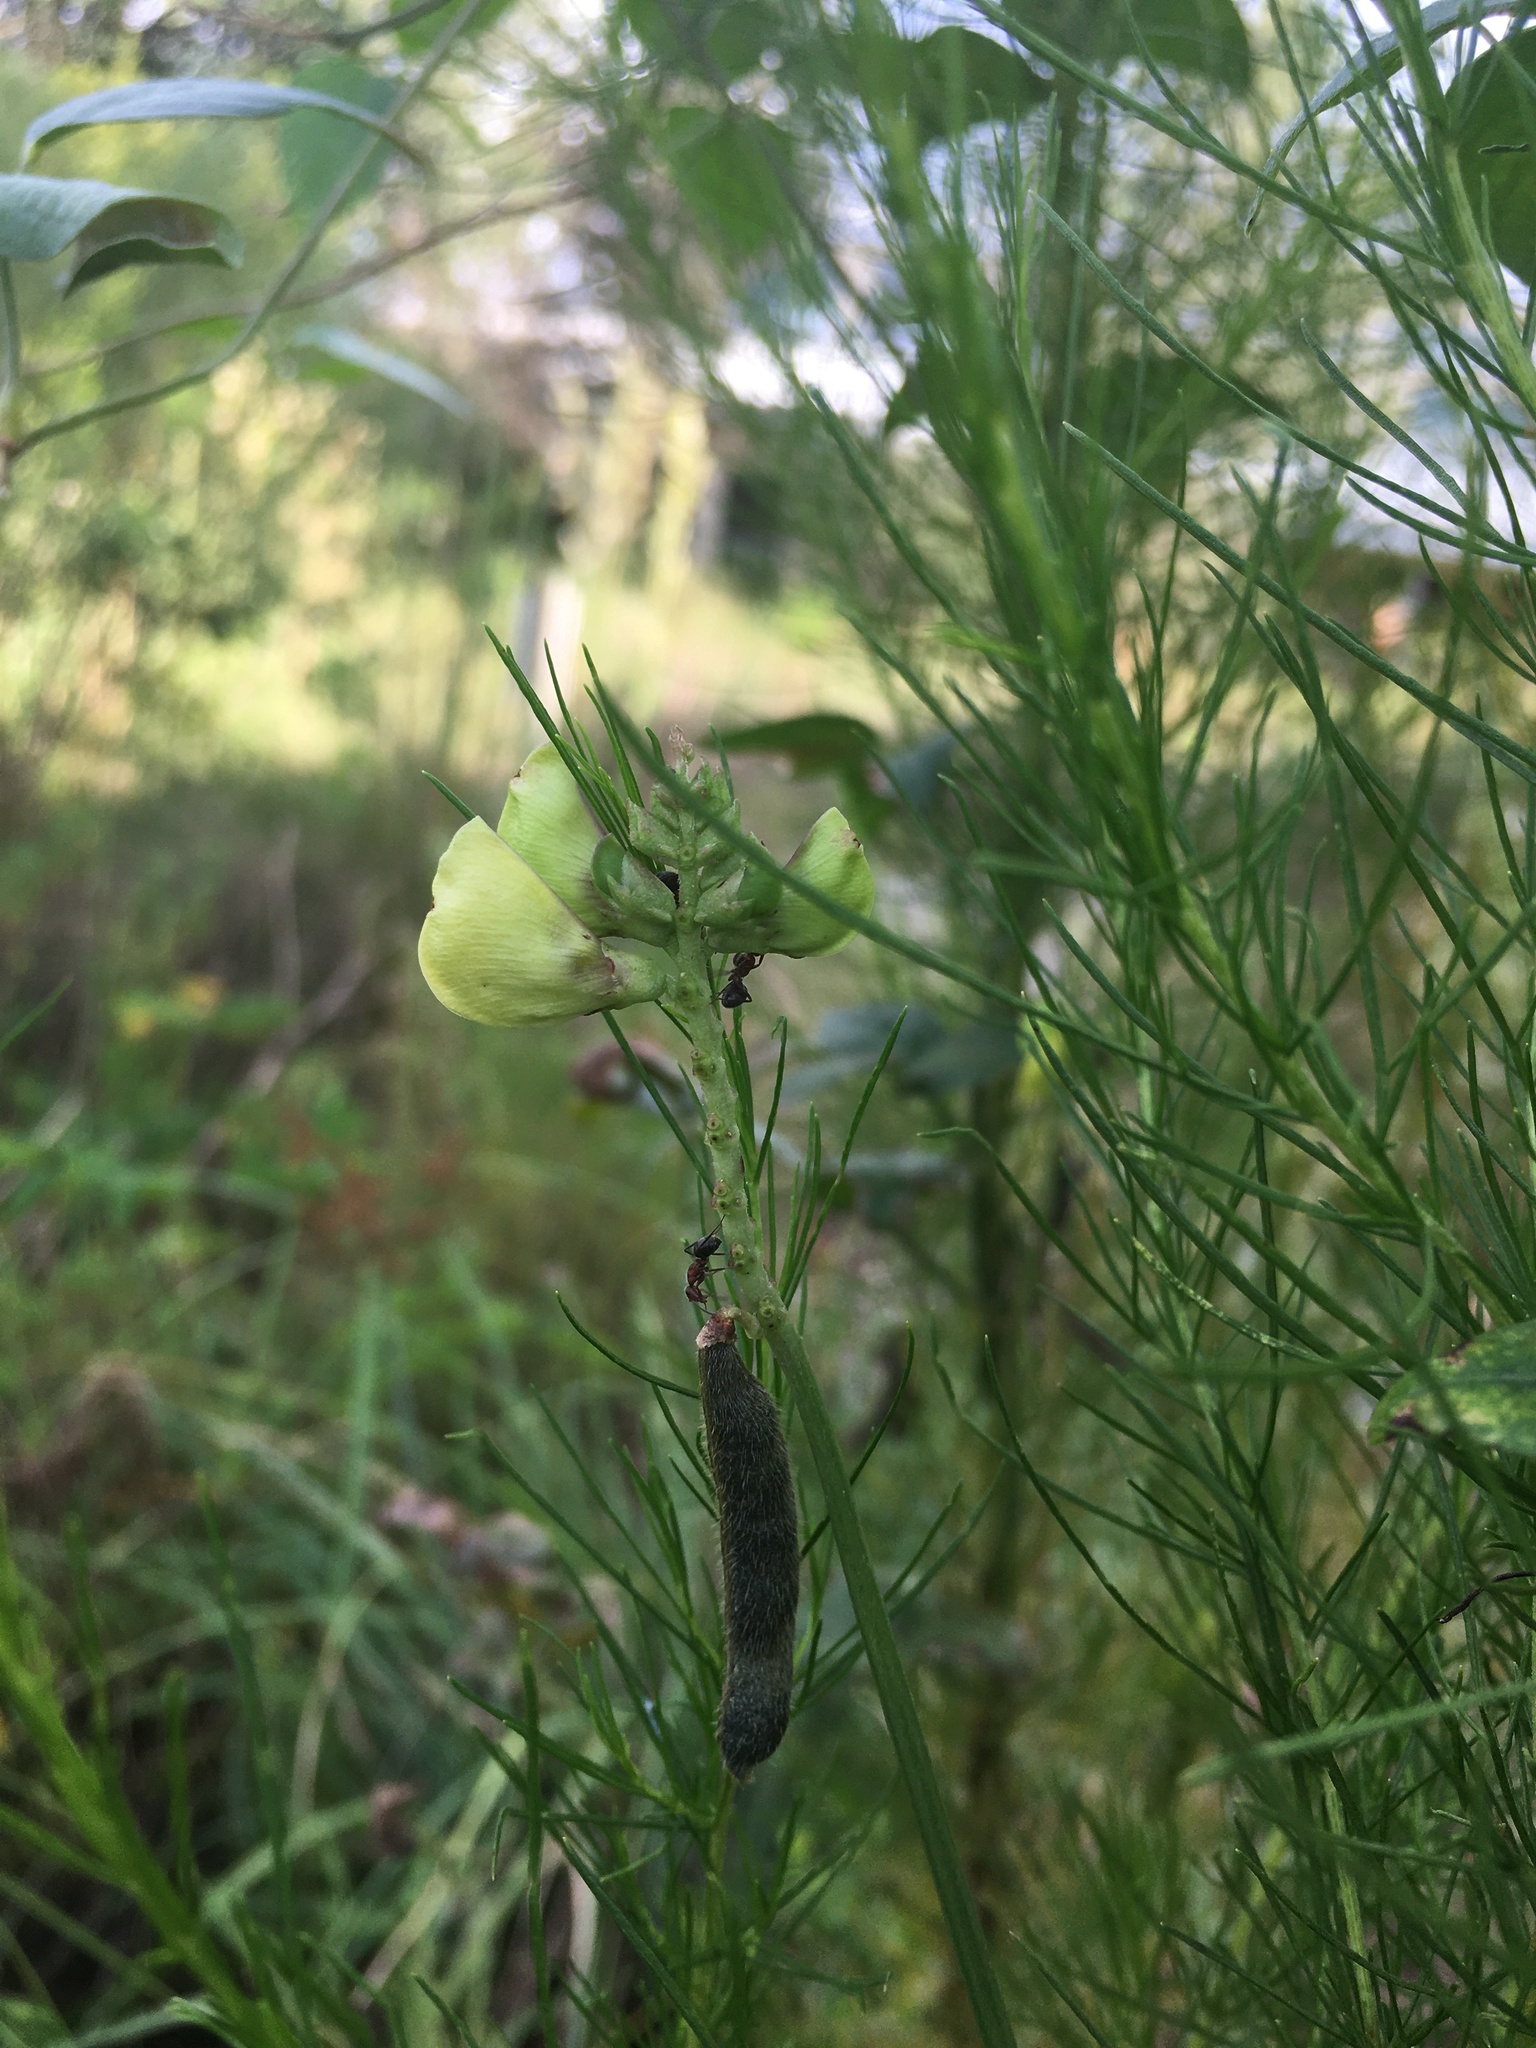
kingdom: Plantae
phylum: Tracheophyta
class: Magnoliopsida
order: Fabales
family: Fabaceae
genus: Vigna
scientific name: Vigna luteola
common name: Hairypod cowpea
